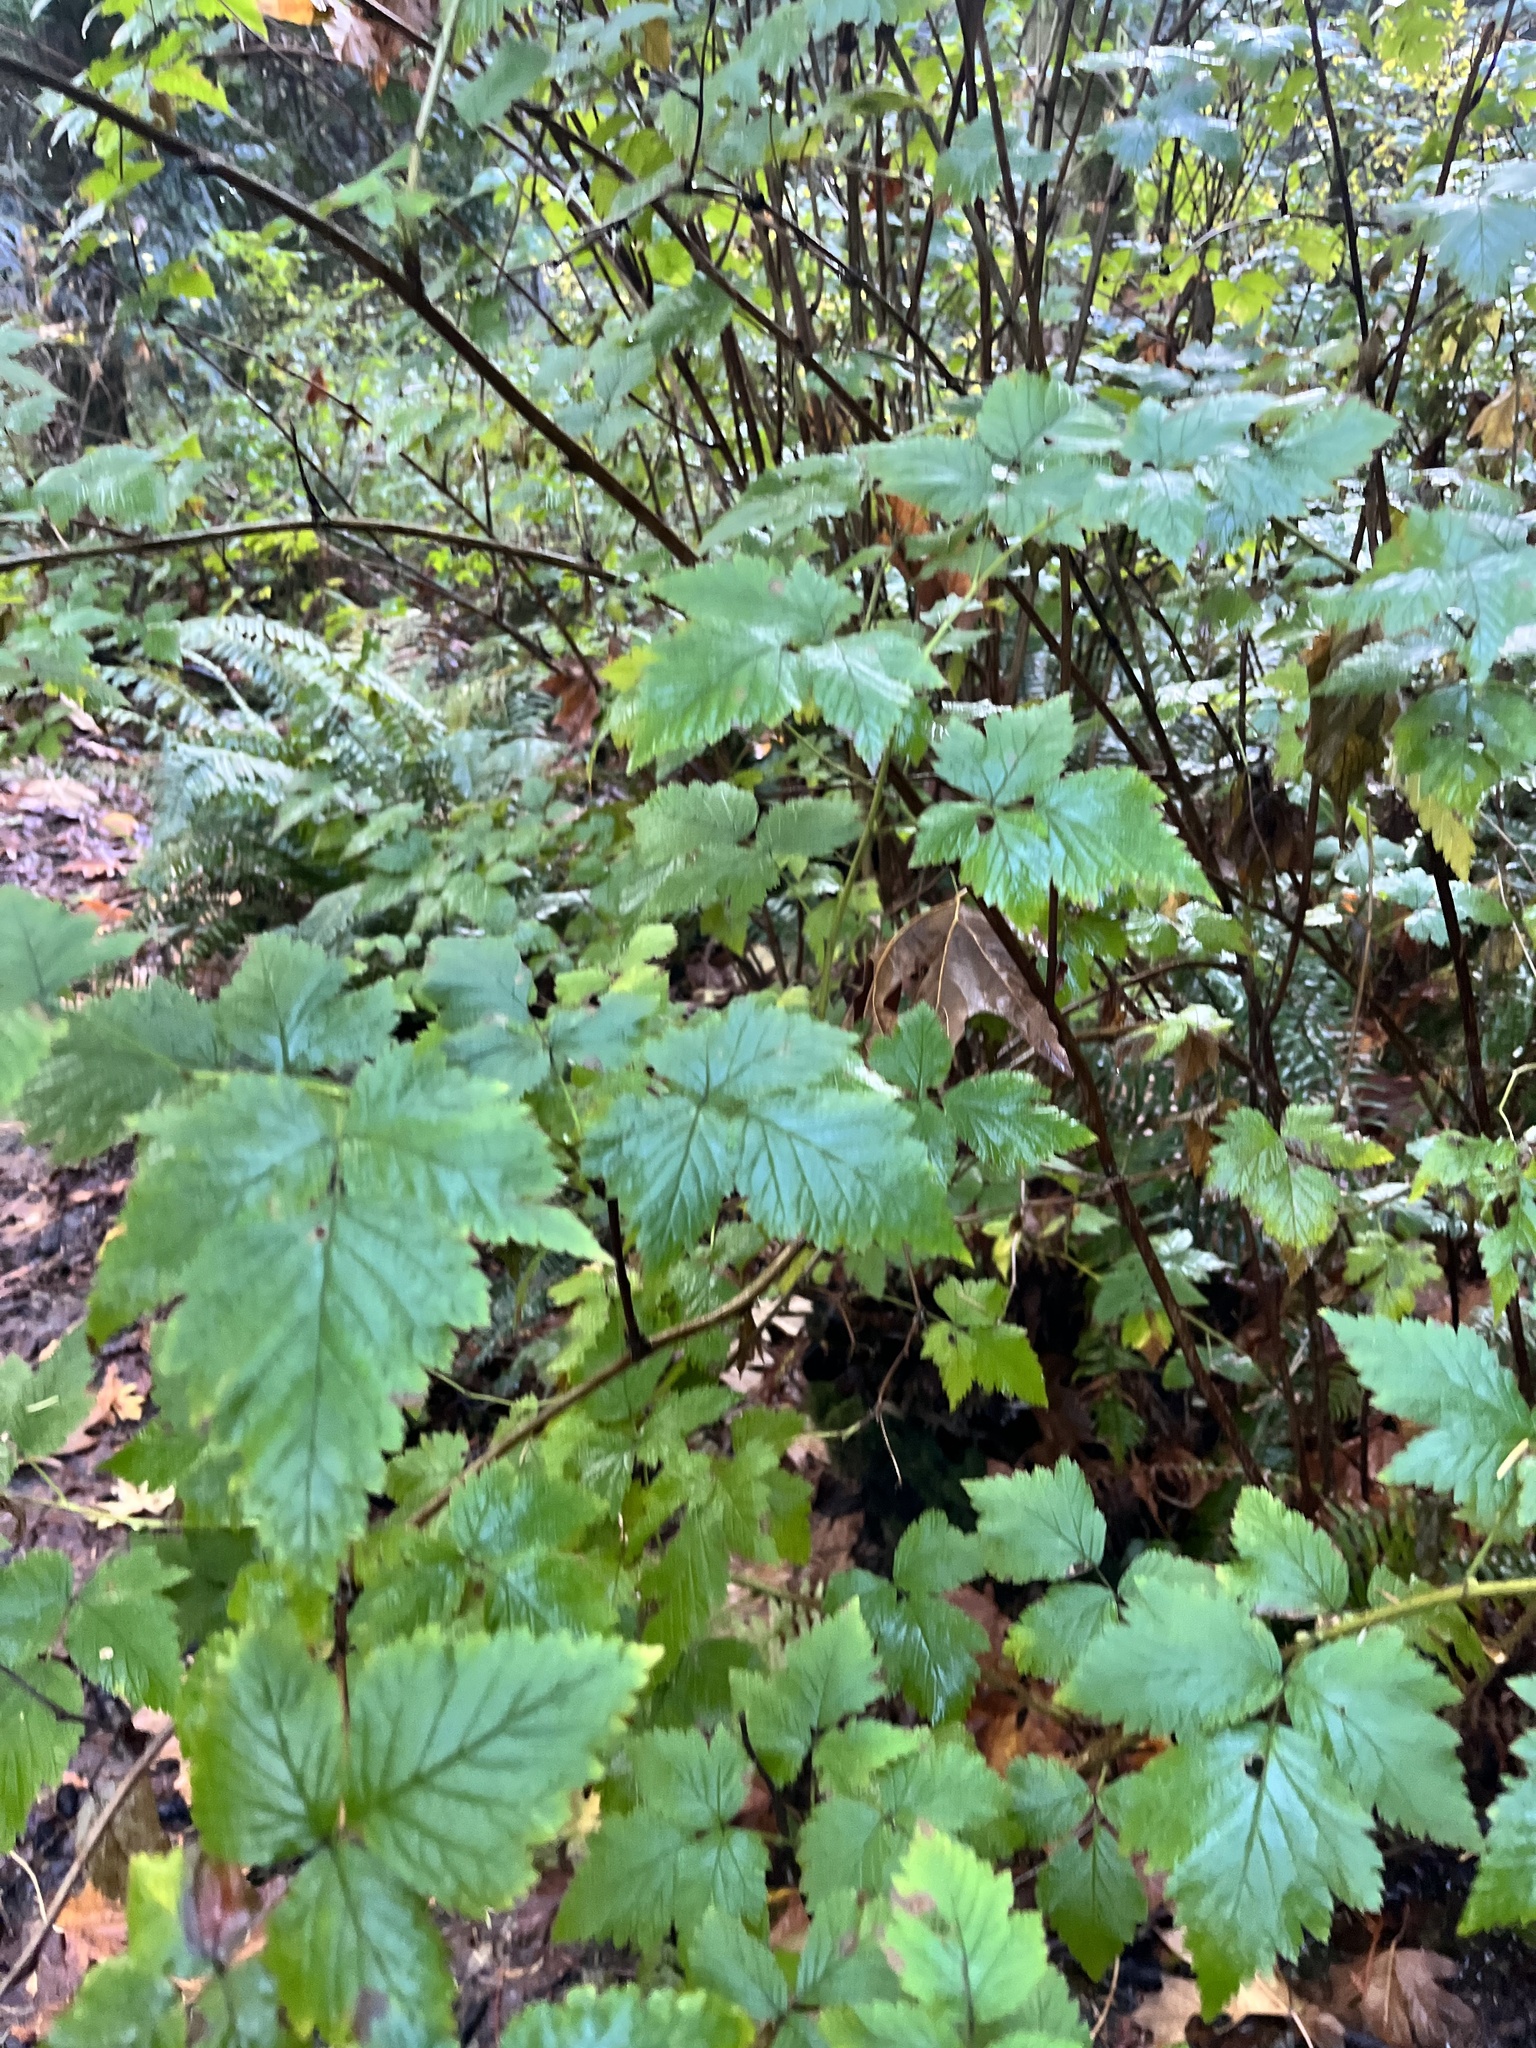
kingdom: Plantae
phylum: Tracheophyta
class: Magnoliopsida
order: Rosales
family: Rosaceae
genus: Rubus
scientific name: Rubus spectabilis
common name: Salmonberry
